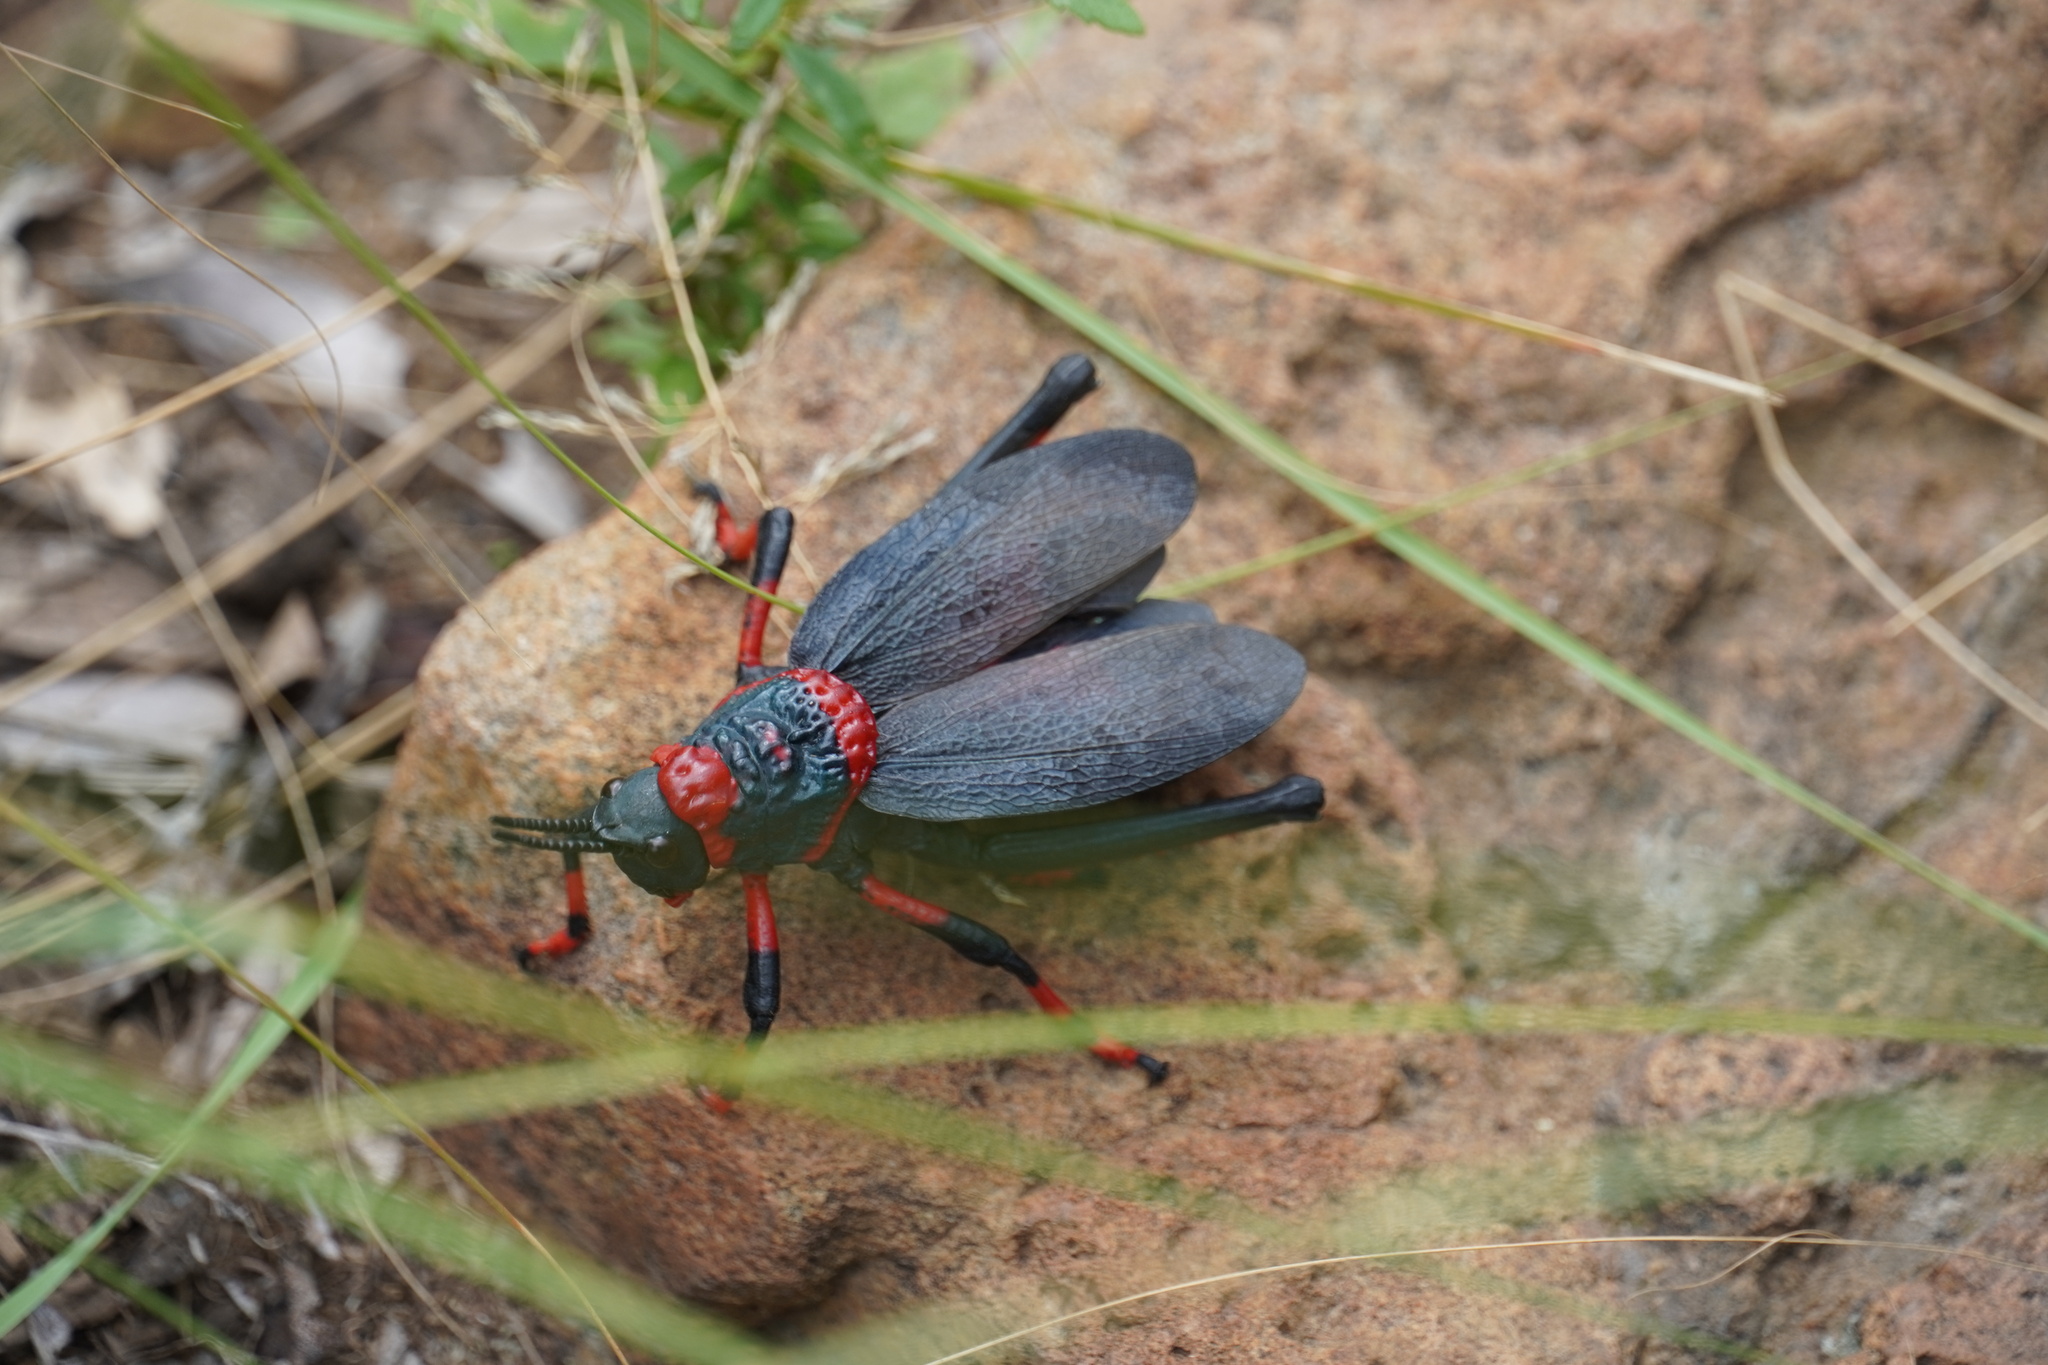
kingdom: Animalia
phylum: Arthropoda
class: Insecta
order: Orthoptera
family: Pyrgomorphidae
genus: Dictyophorus
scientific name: Dictyophorus spumans
